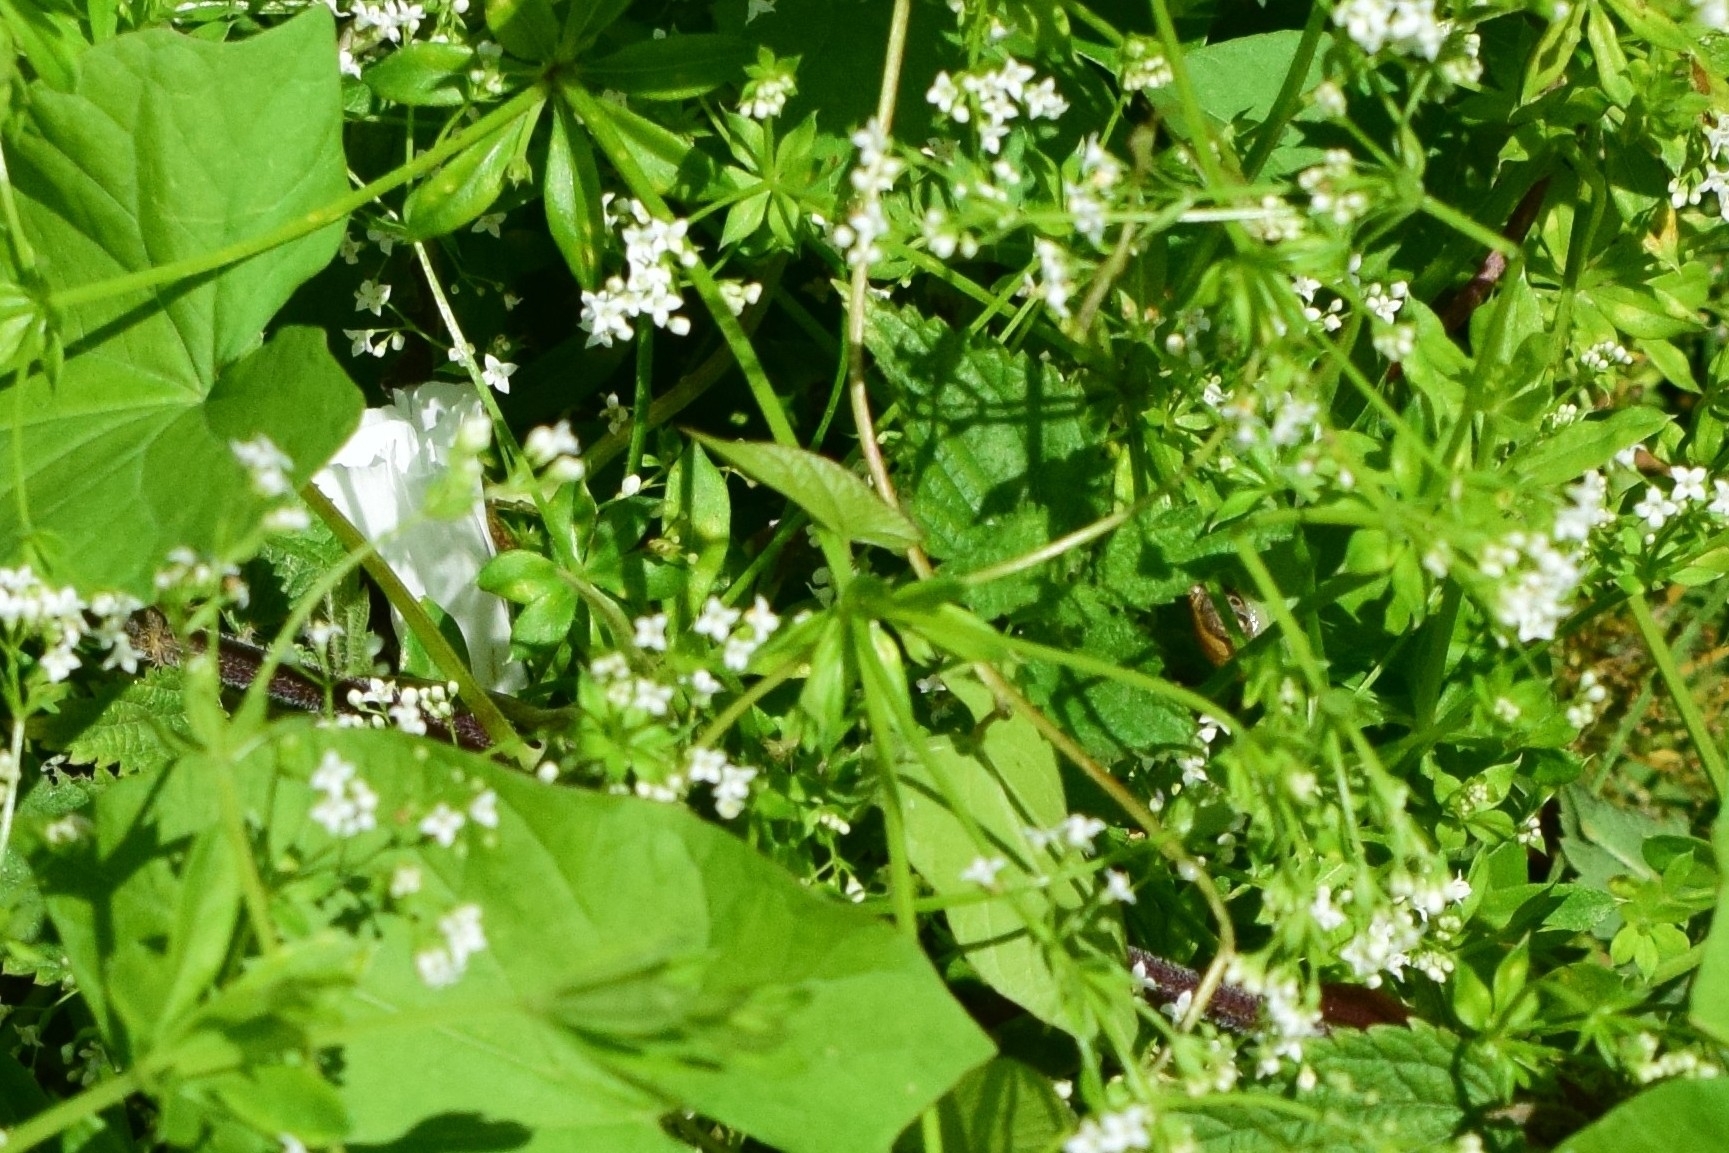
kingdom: Plantae
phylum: Tracheophyta
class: Magnoliopsida
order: Gentianales
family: Rubiaceae
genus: Galium
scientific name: Galium rivale
